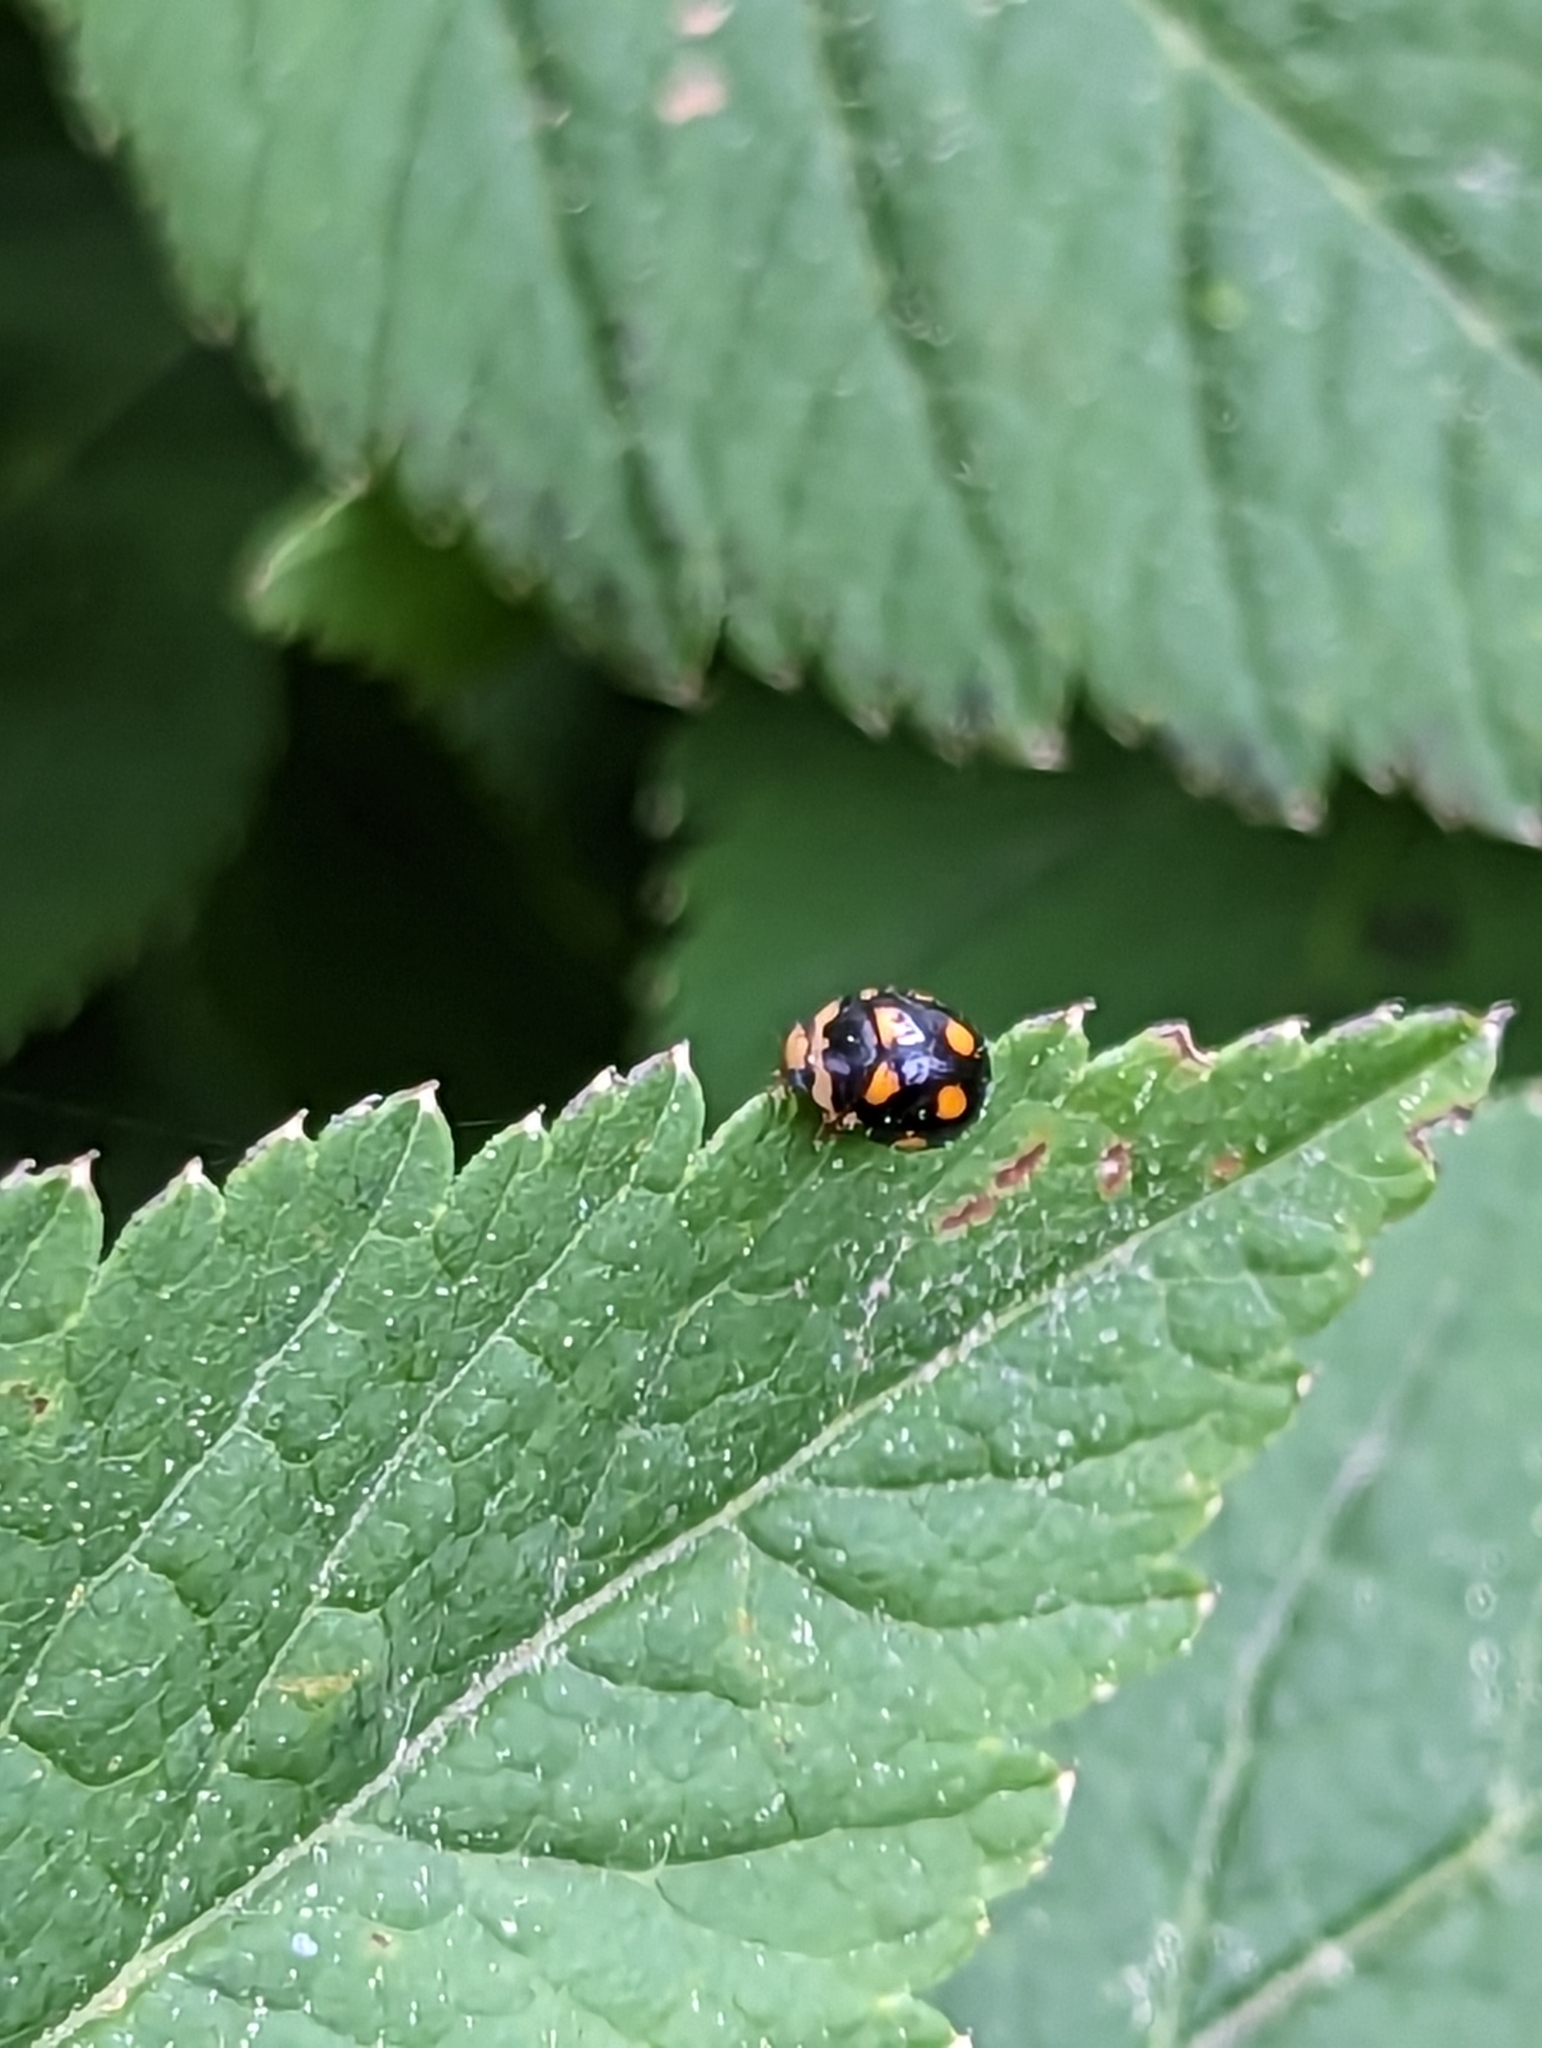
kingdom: Animalia
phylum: Arthropoda
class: Insecta
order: Coleoptera
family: Coccinellidae
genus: Brachiacantha
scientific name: Brachiacantha ursina
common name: Ursine spurleg lady beetle
